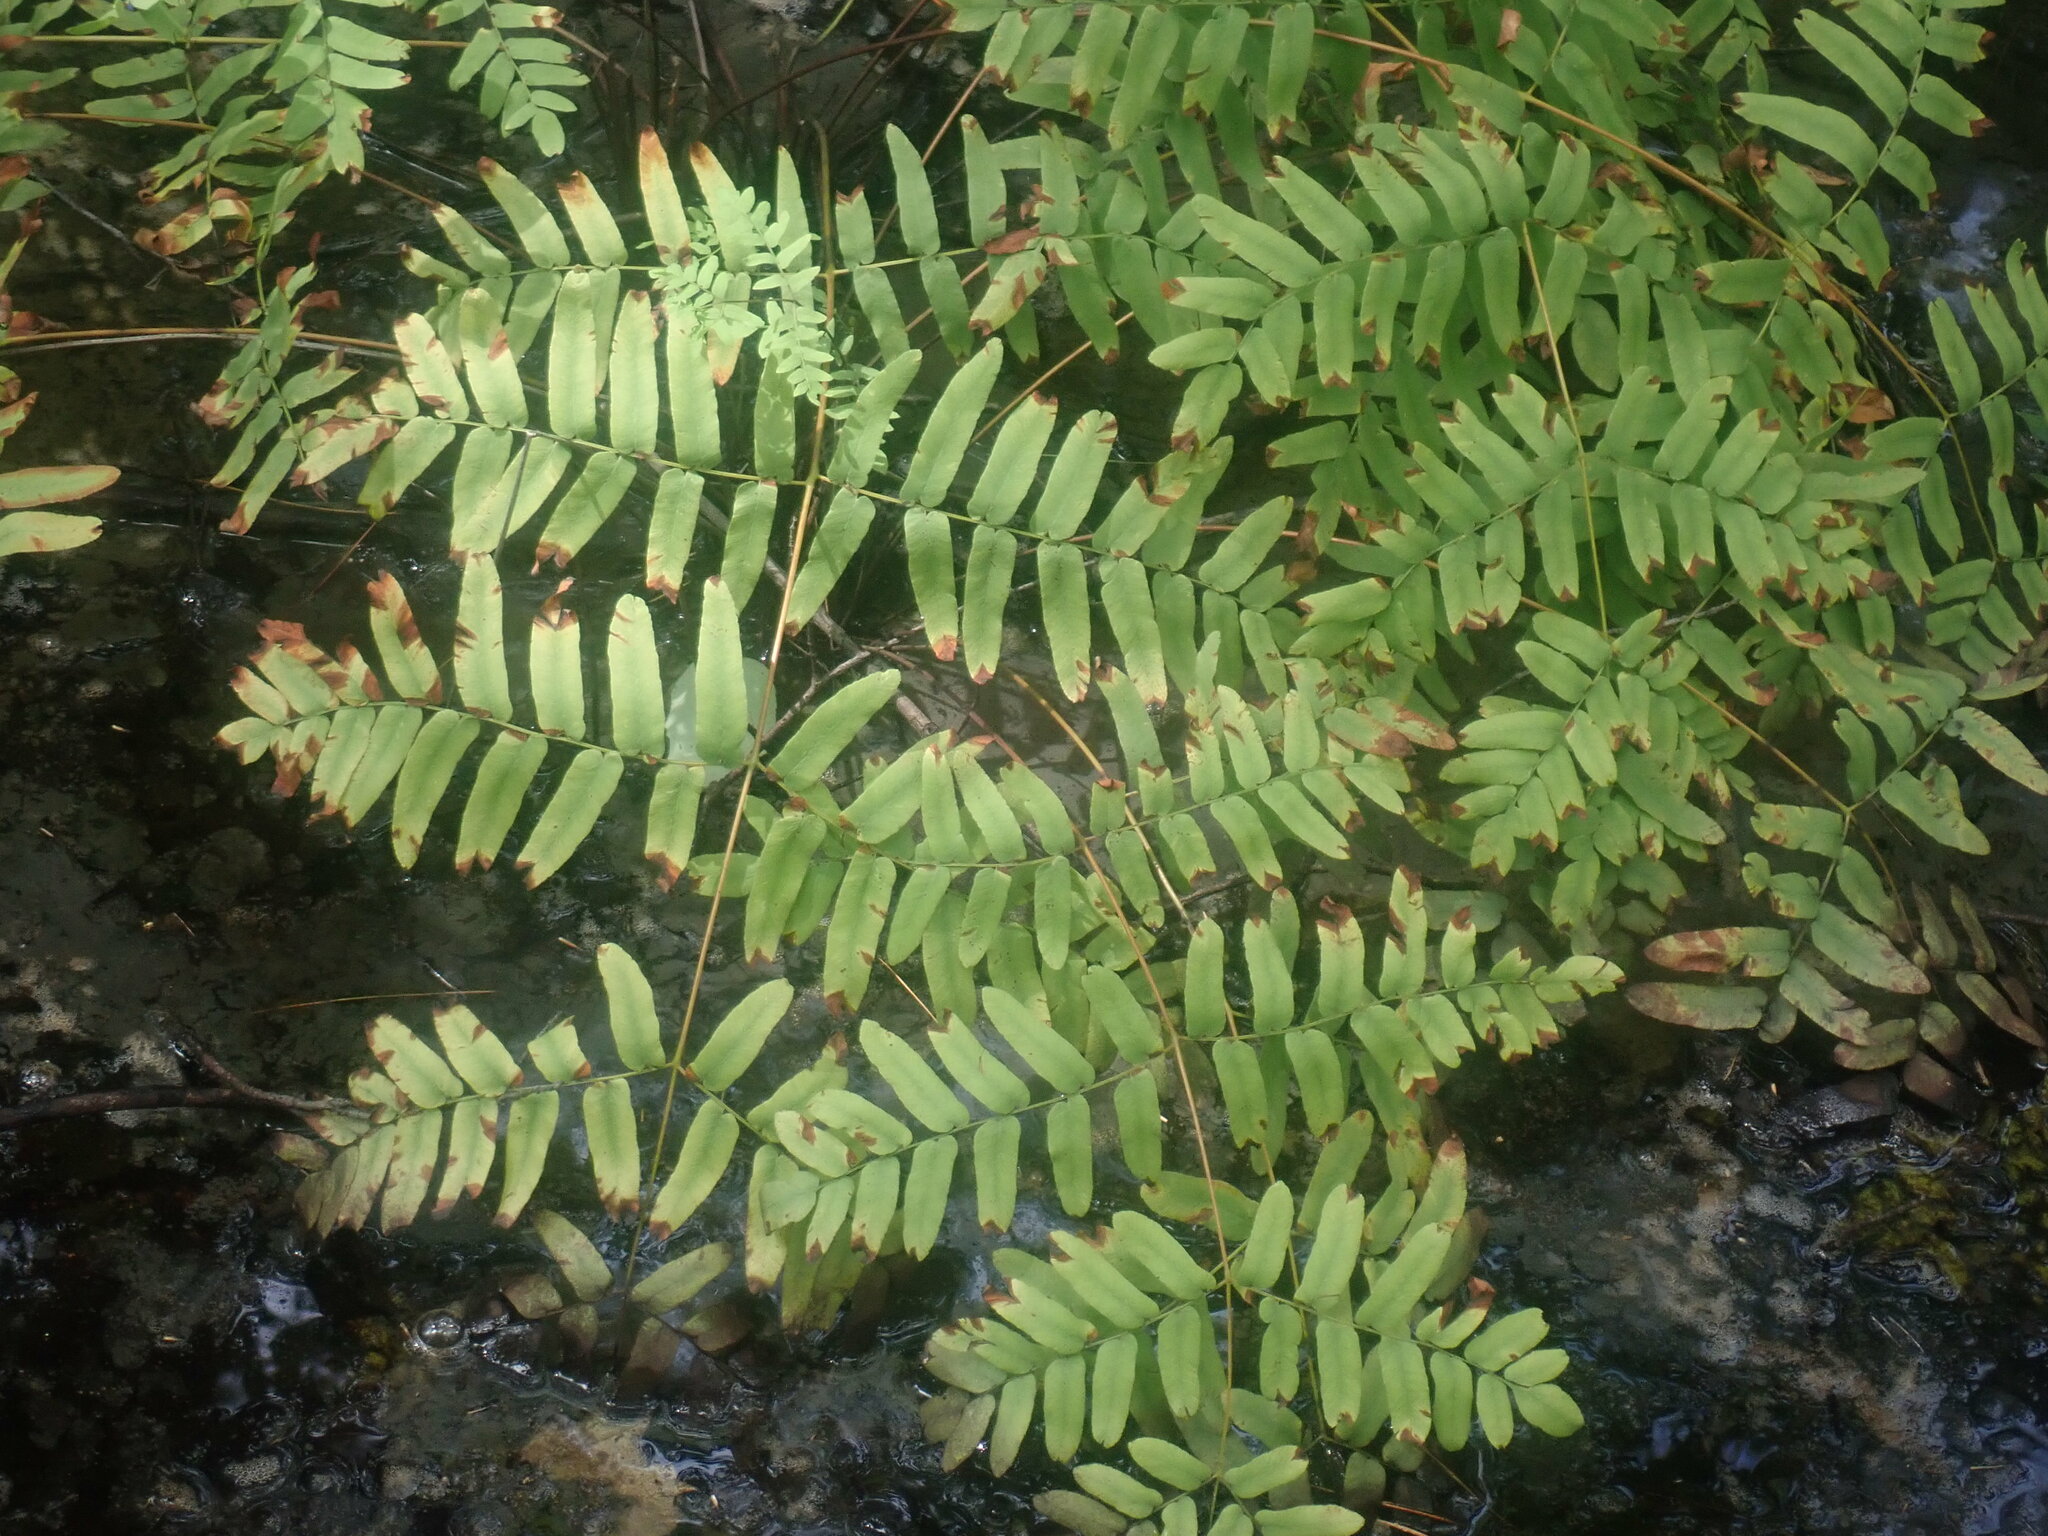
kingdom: Plantae
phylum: Tracheophyta
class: Polypodiopsida
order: Osmundales
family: Osmundaceae
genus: Osmunda
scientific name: Osmunda spectabilis
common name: American royal fern
